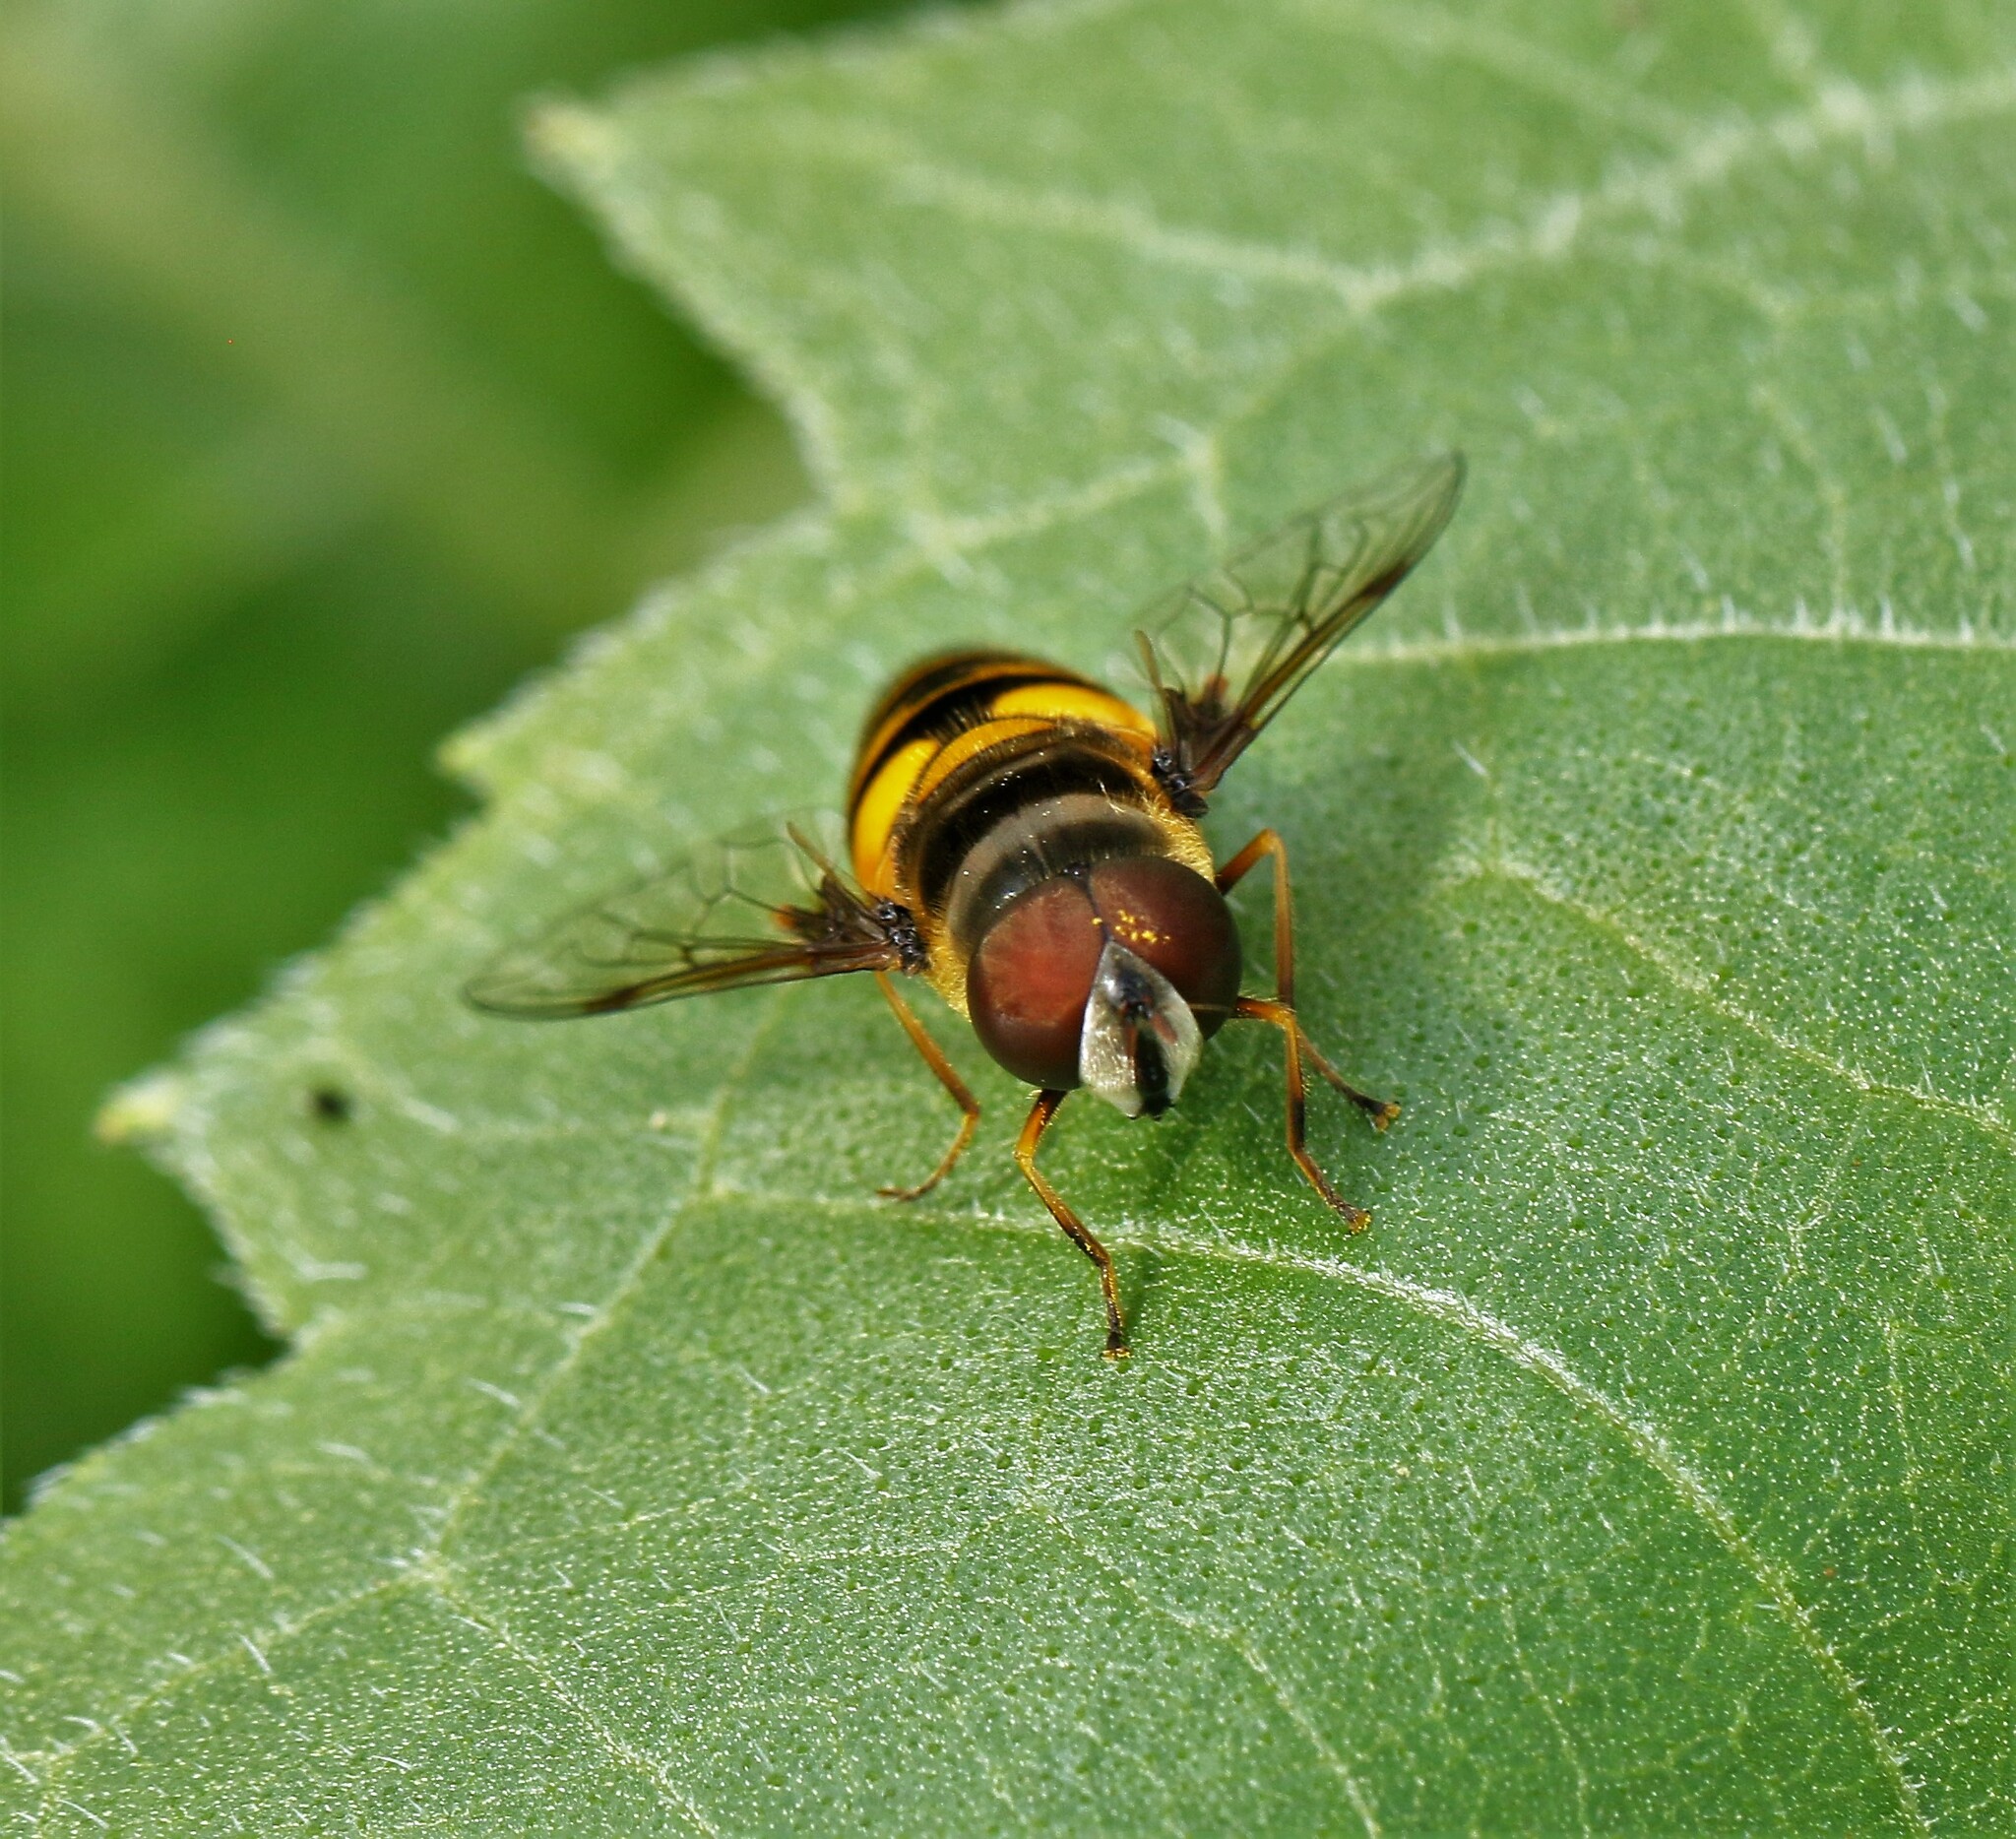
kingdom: Animalia
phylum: Arthropoda
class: Insecta
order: Diptera
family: Syrphidae
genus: Eristalis
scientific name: Eristalis transversa
